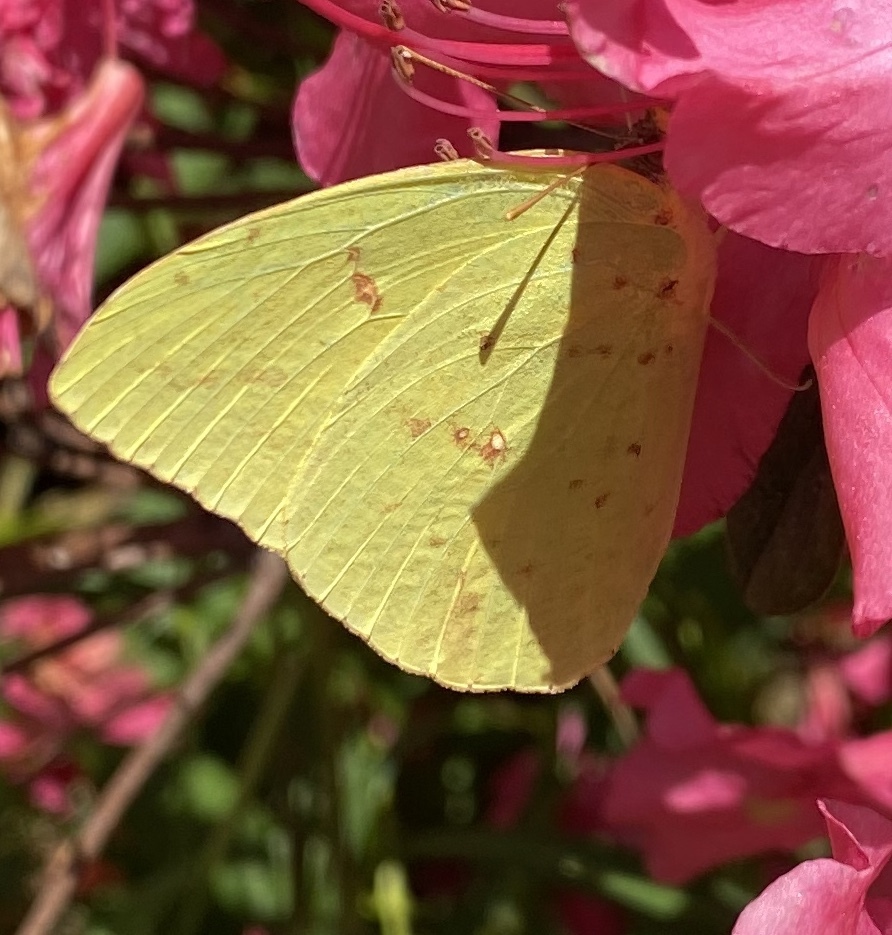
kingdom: Animalia
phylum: Arthropoda
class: Insecta
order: Lepidoptera
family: Pieridae
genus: Phoebis
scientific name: Phoebis sennae
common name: Cloudless sulphur
